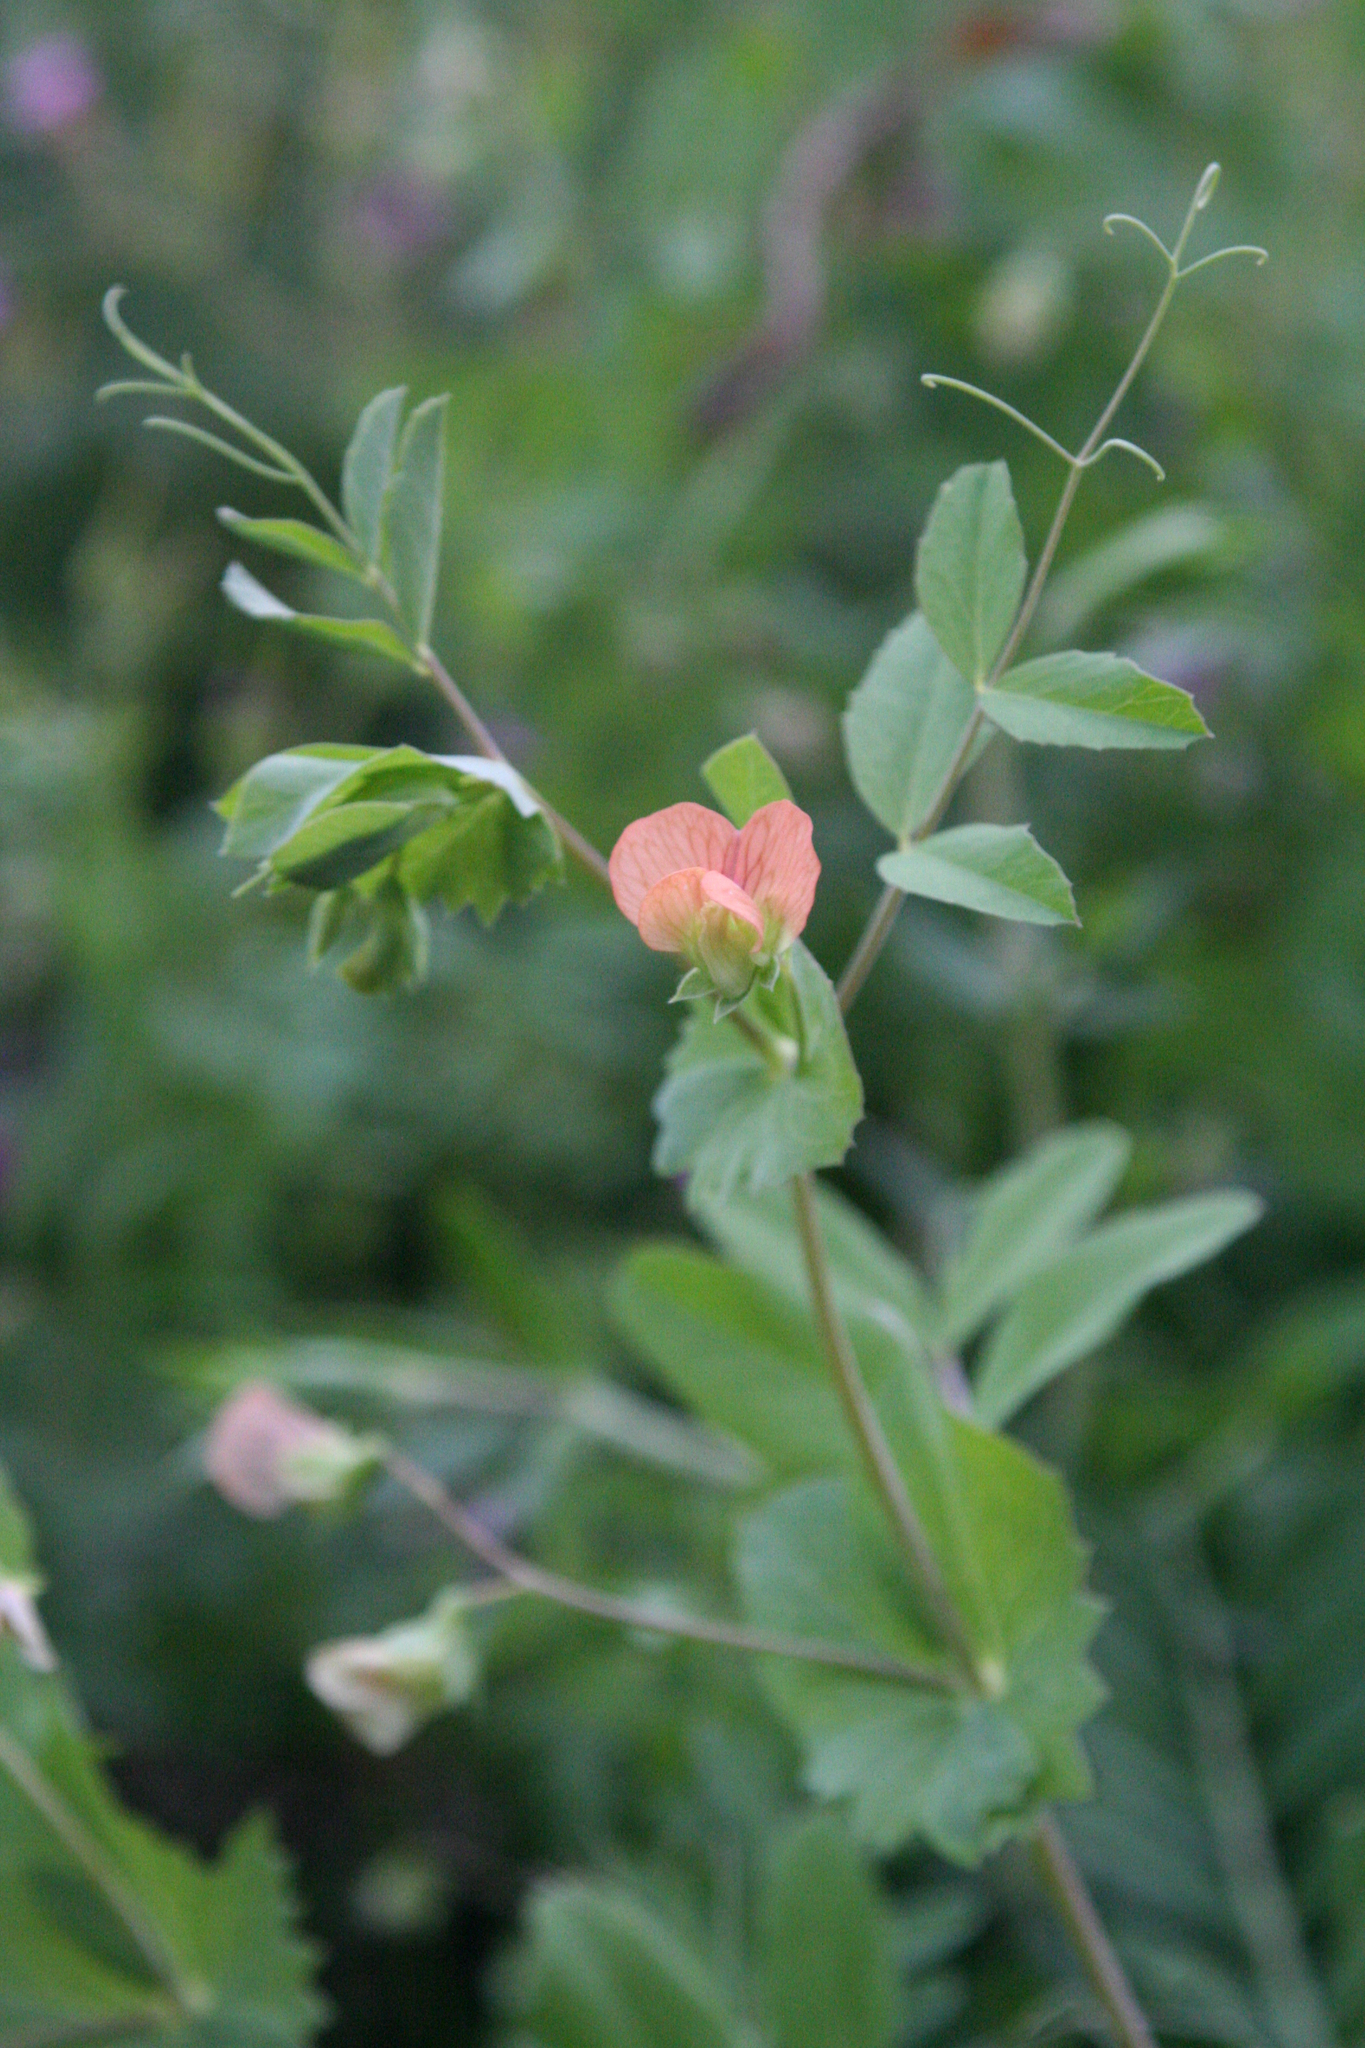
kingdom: Plantae
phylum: Tracheophyta
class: Magnoliopsida
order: Fabales
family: Fabaceae
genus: Lathyrus
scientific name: Lathyrus fulvus
